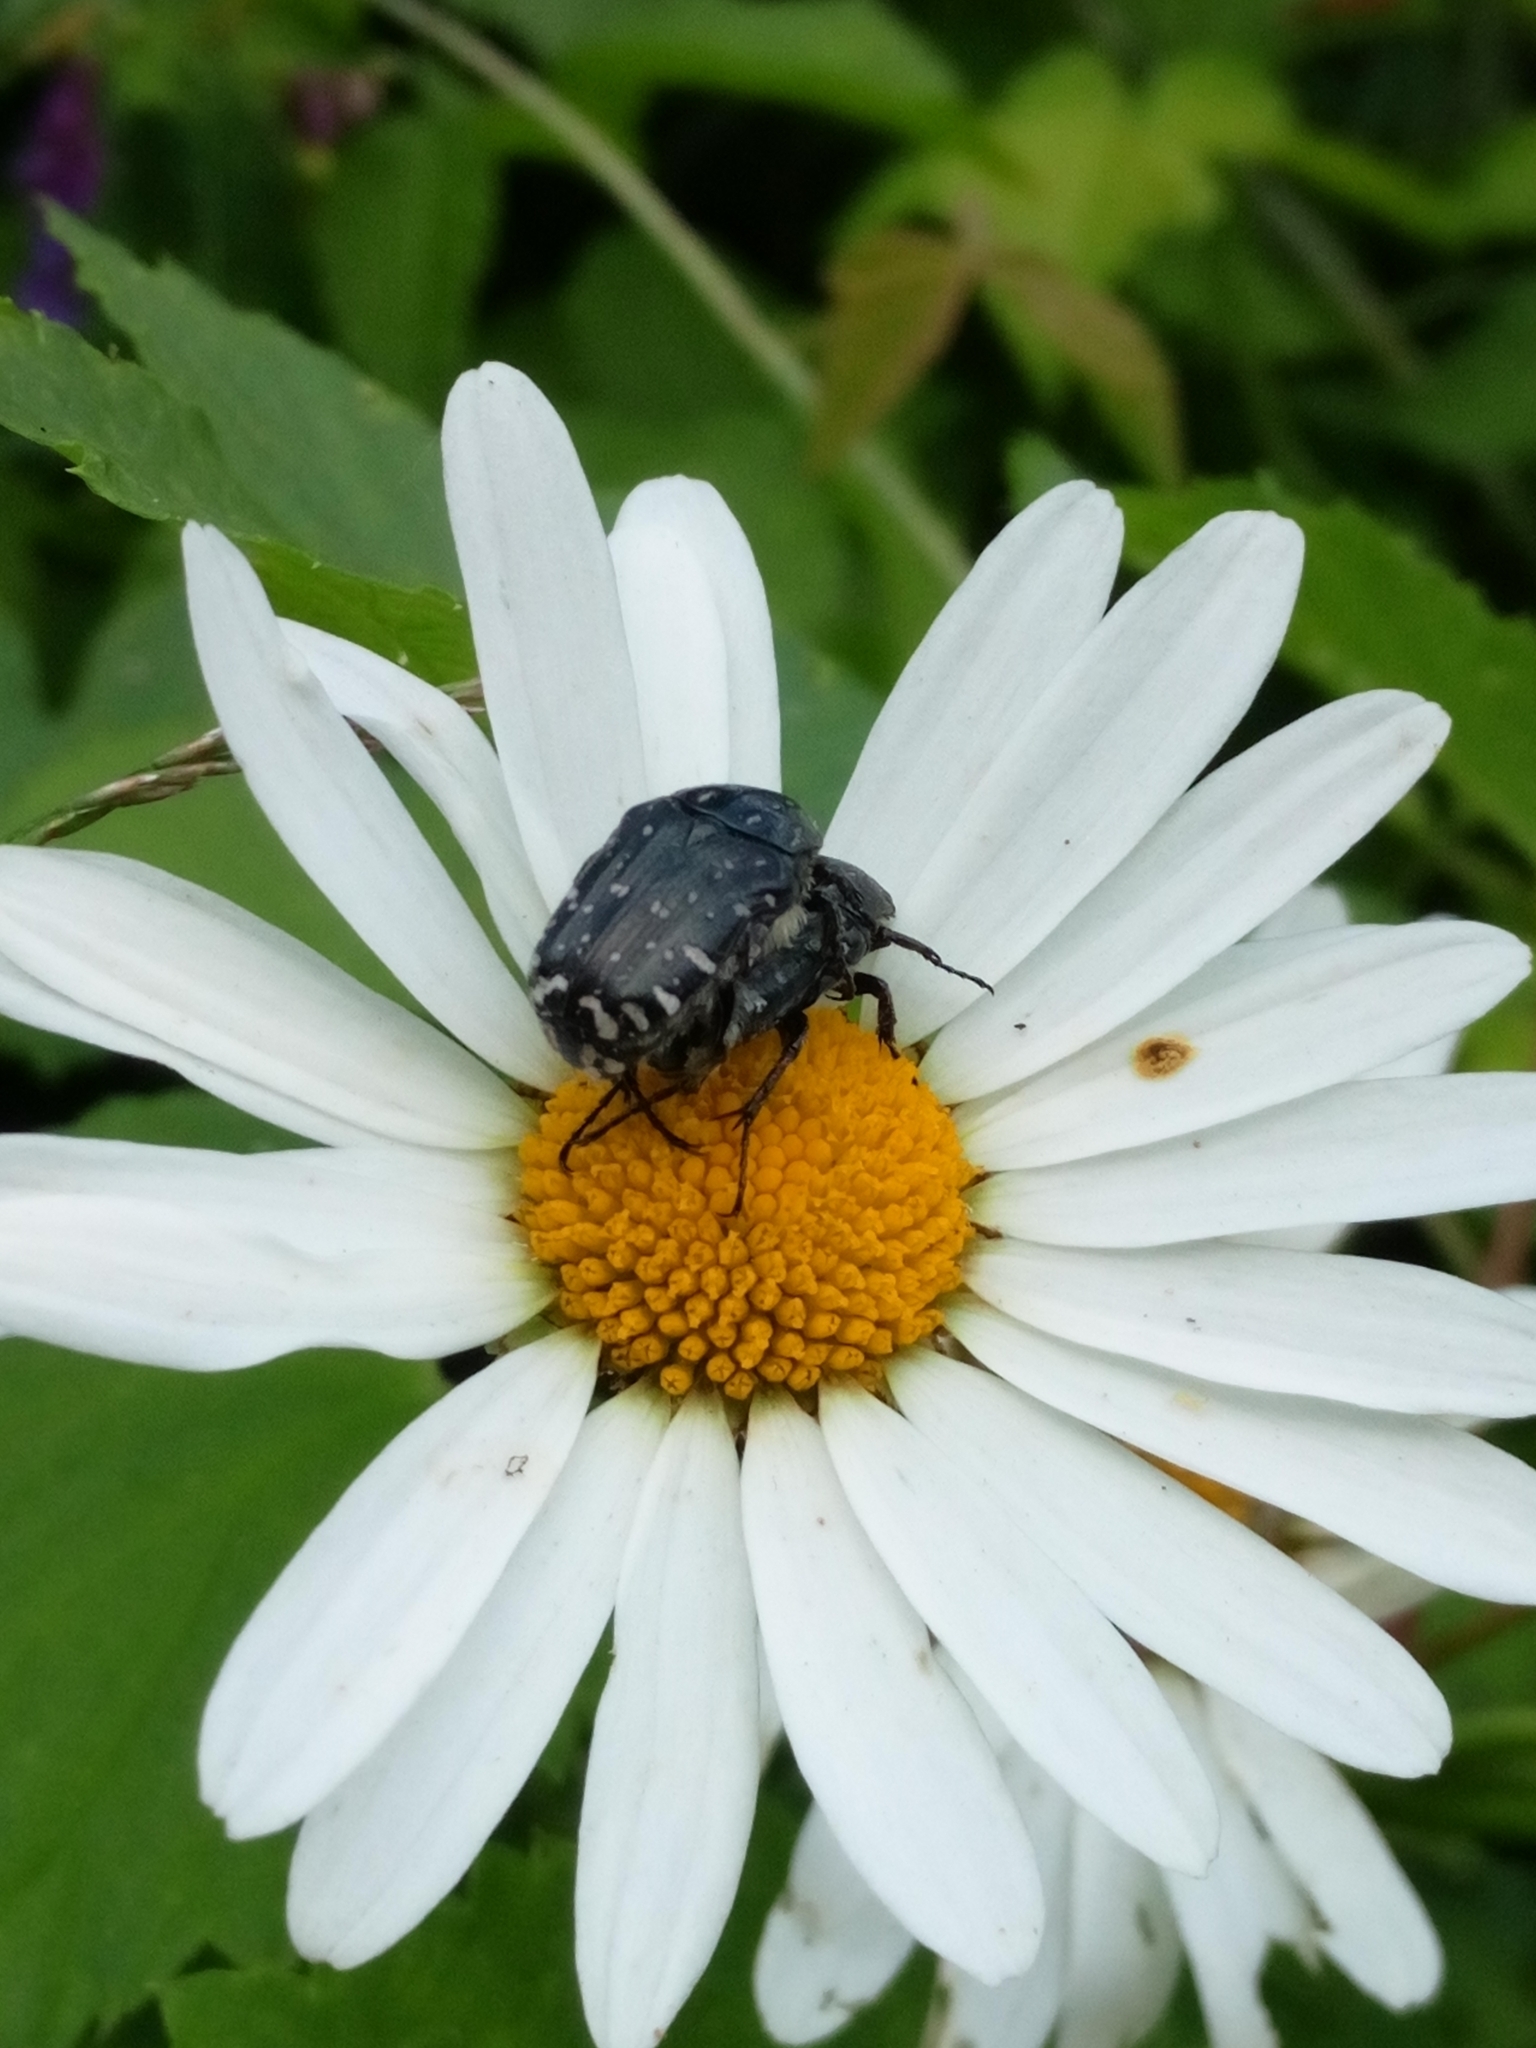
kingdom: Animalia
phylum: Arthropoda
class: Insecta
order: Coleoptera
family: Scarabaeidae
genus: Oxythyrea
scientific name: Oxythyrea funesta
